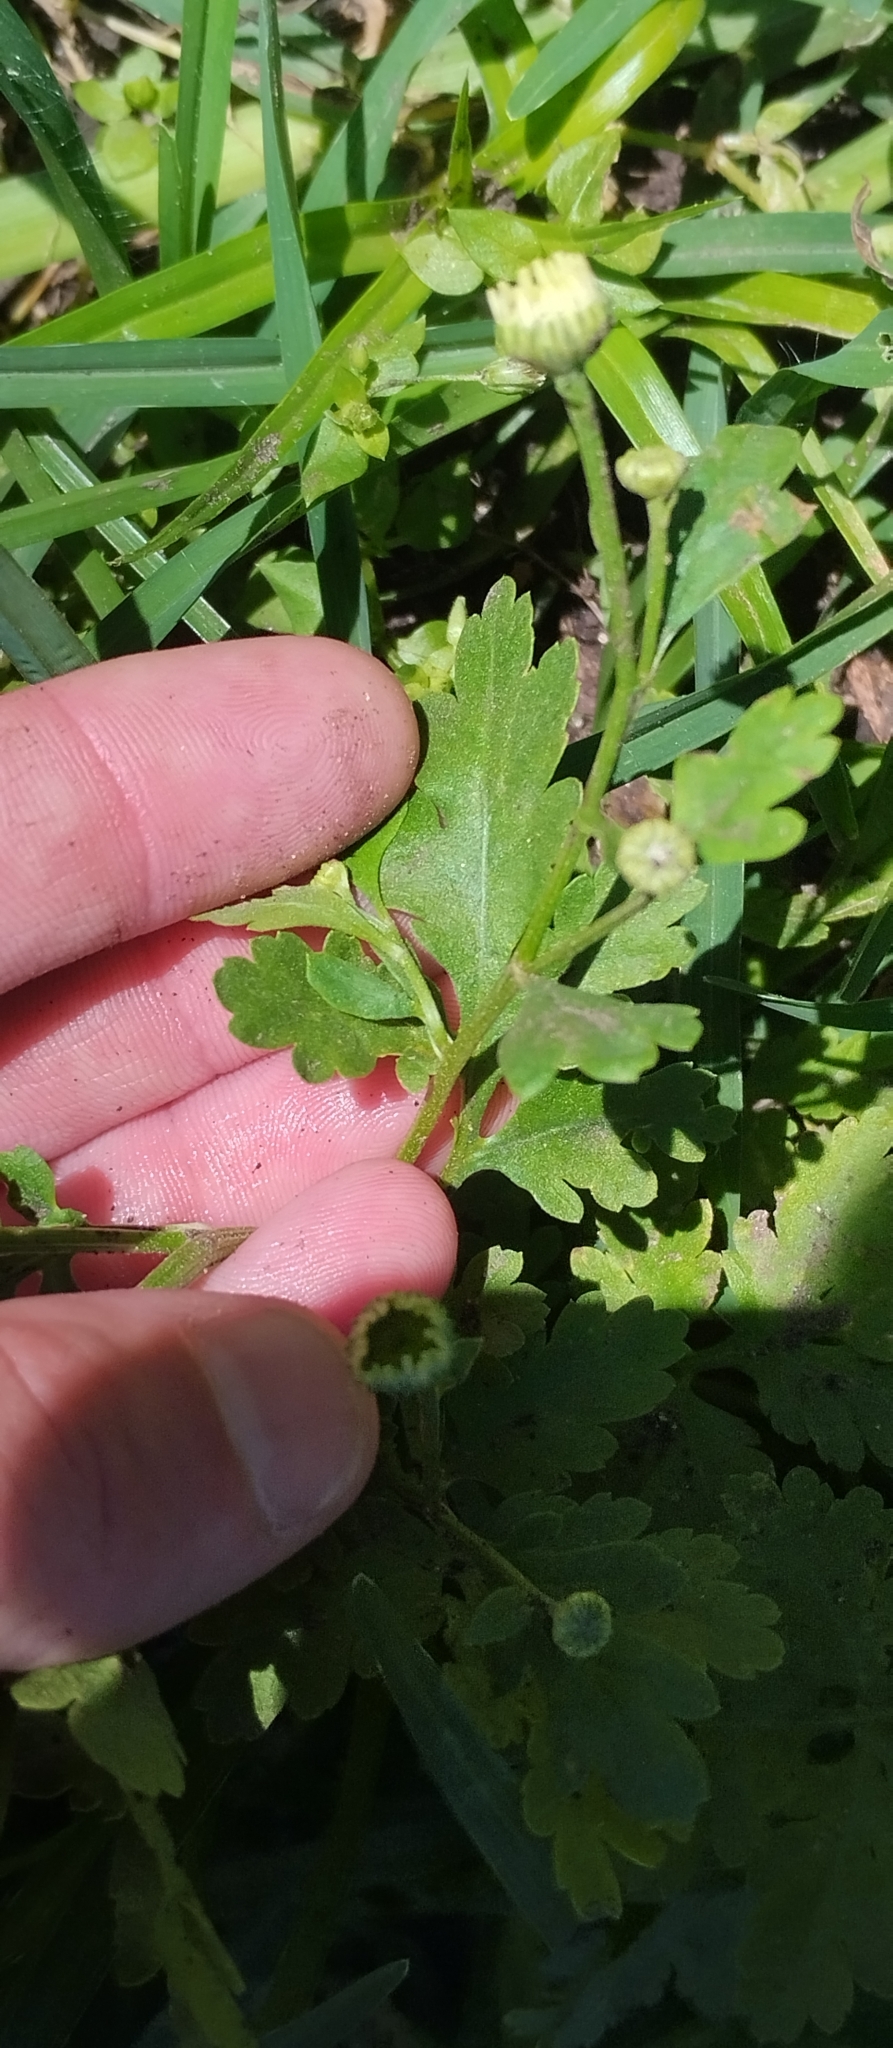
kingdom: Plantae
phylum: Tracheophyta
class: Magnoliopsida
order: Asterales
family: Asteraceae
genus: Tanacetum
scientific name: Tanacetum parthenium
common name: Feverfew
